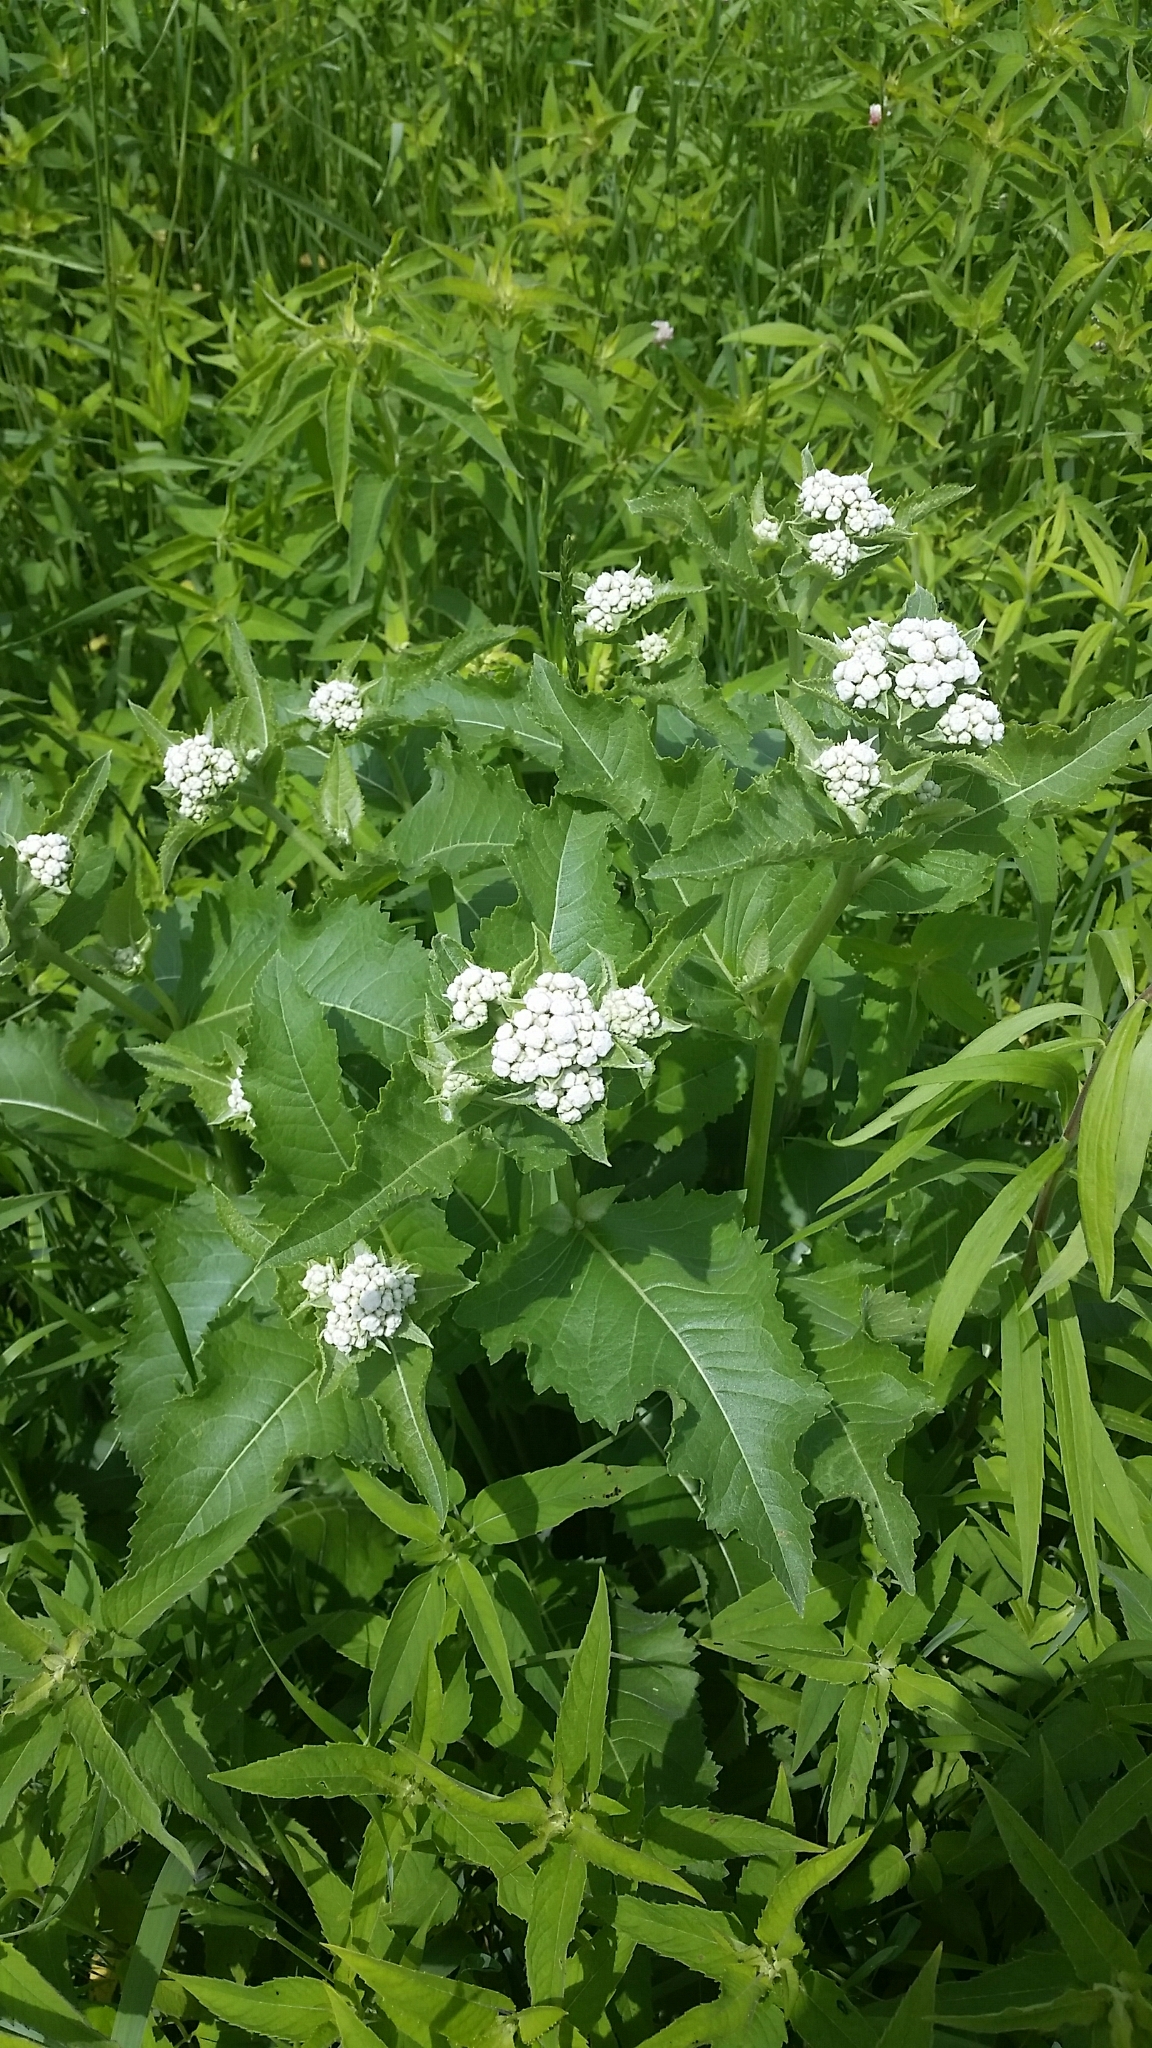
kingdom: Plantae
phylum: Tracheophyta
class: Magnoliopsida
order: Asterales
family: Asteraceae
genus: Parthenium
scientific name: Parthenium integrifolium
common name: American feverfew
